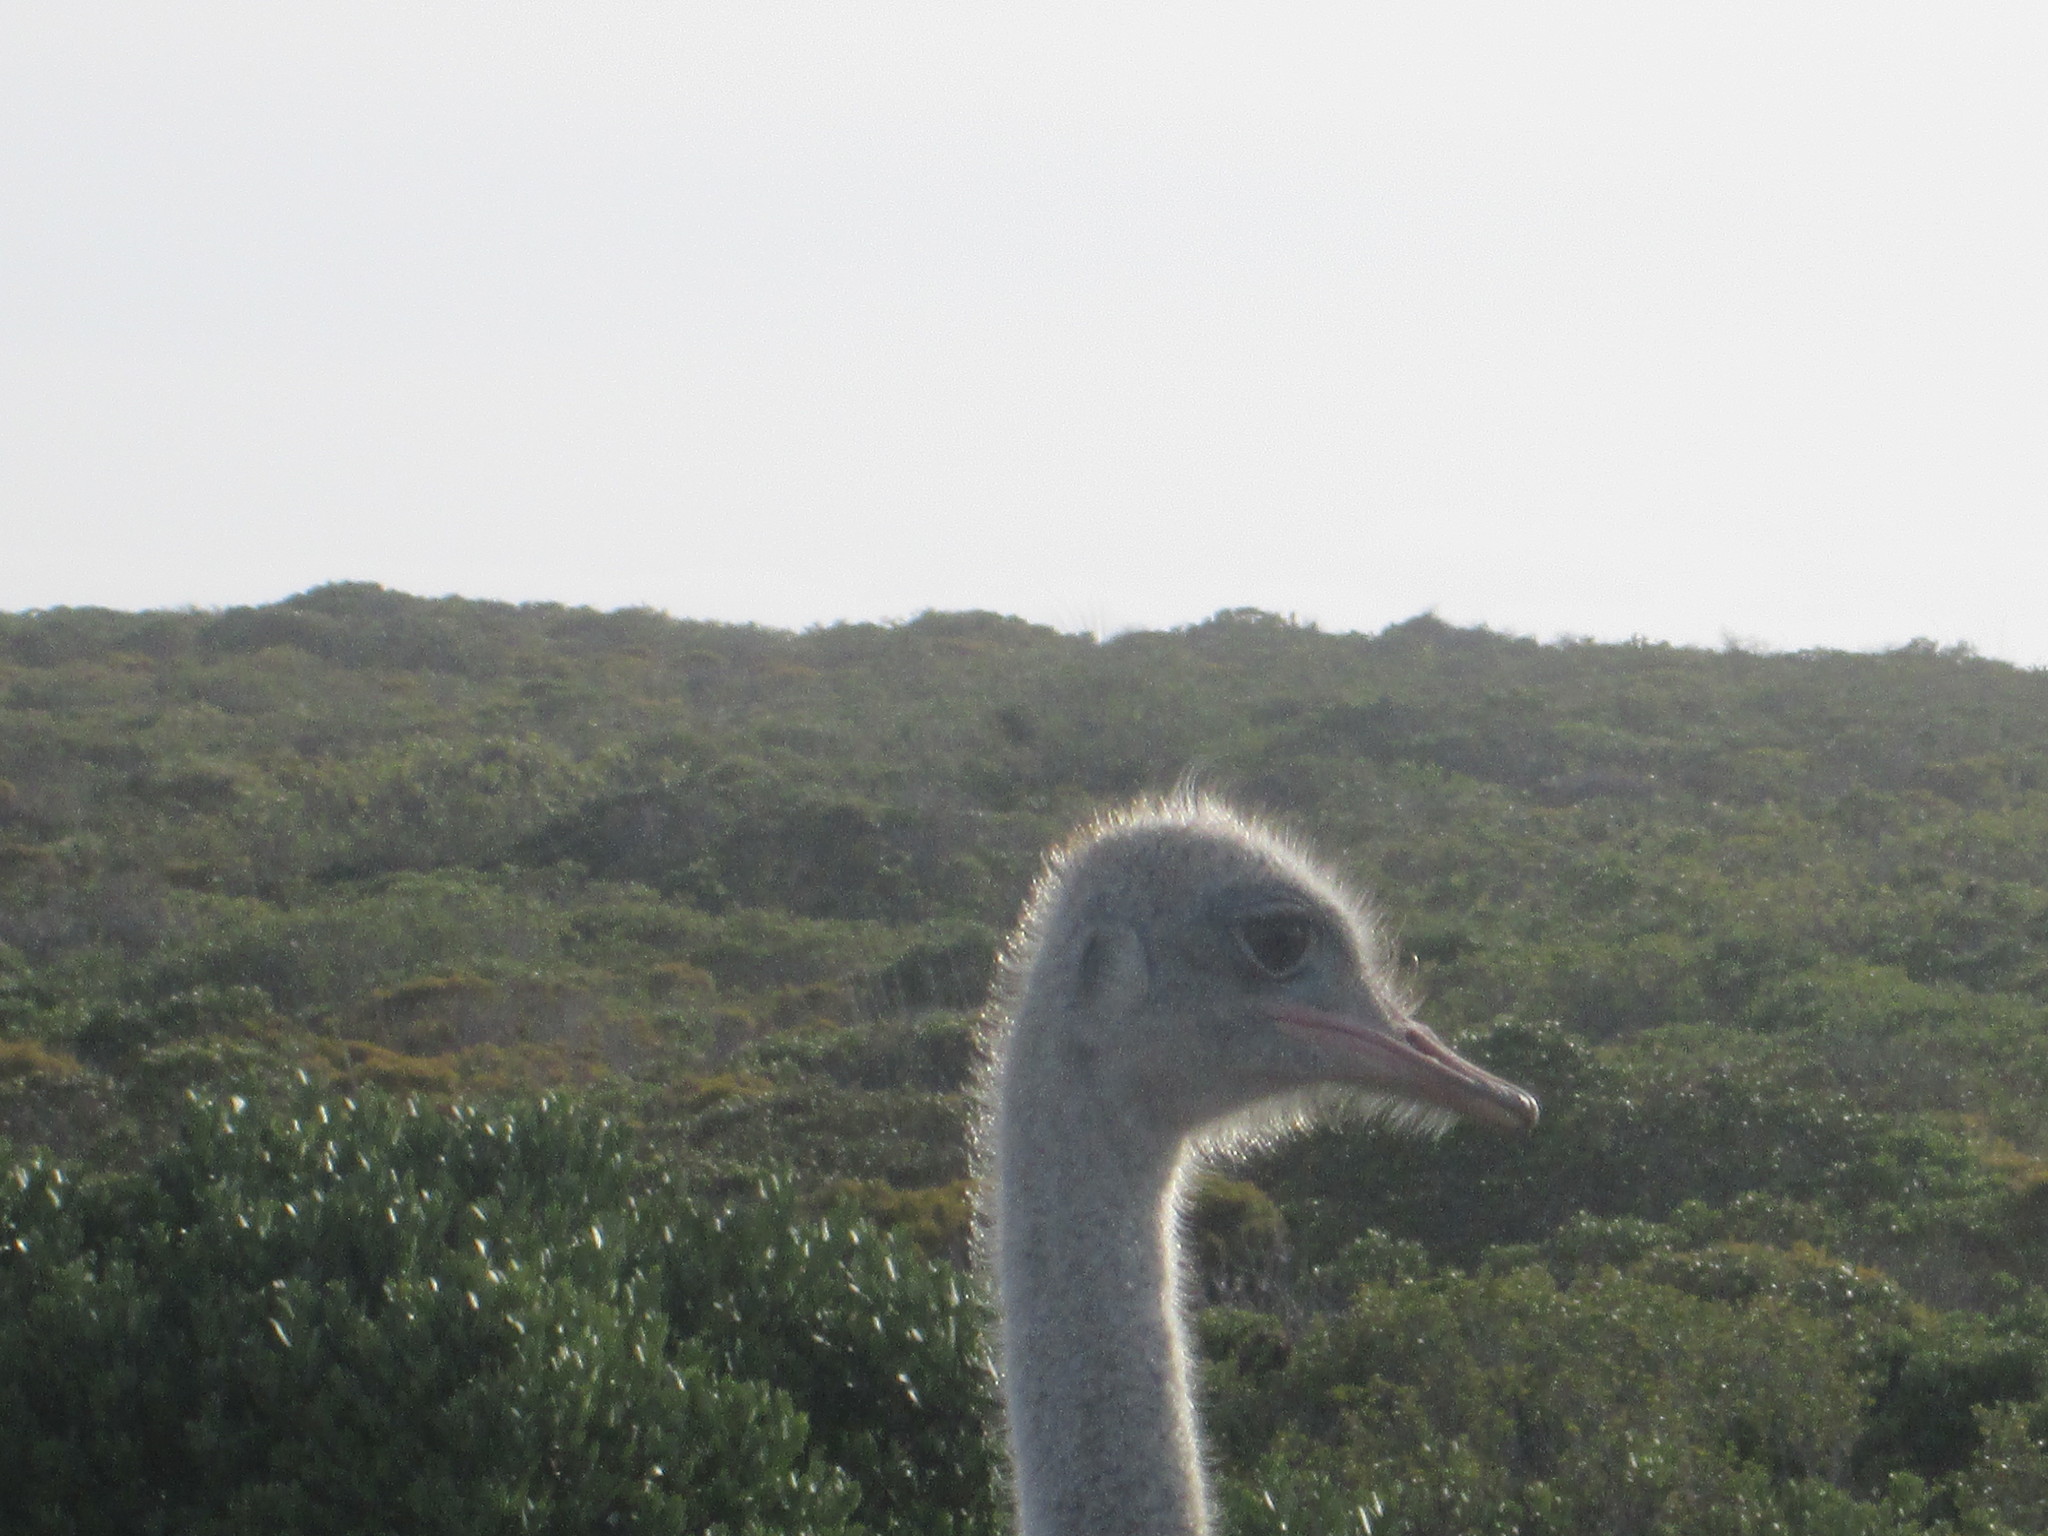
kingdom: Animalia
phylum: Chordata
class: Aves
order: Struthioniformes
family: Struthionidae
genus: Struthio
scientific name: Struthio camelus
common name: Common ostrich
